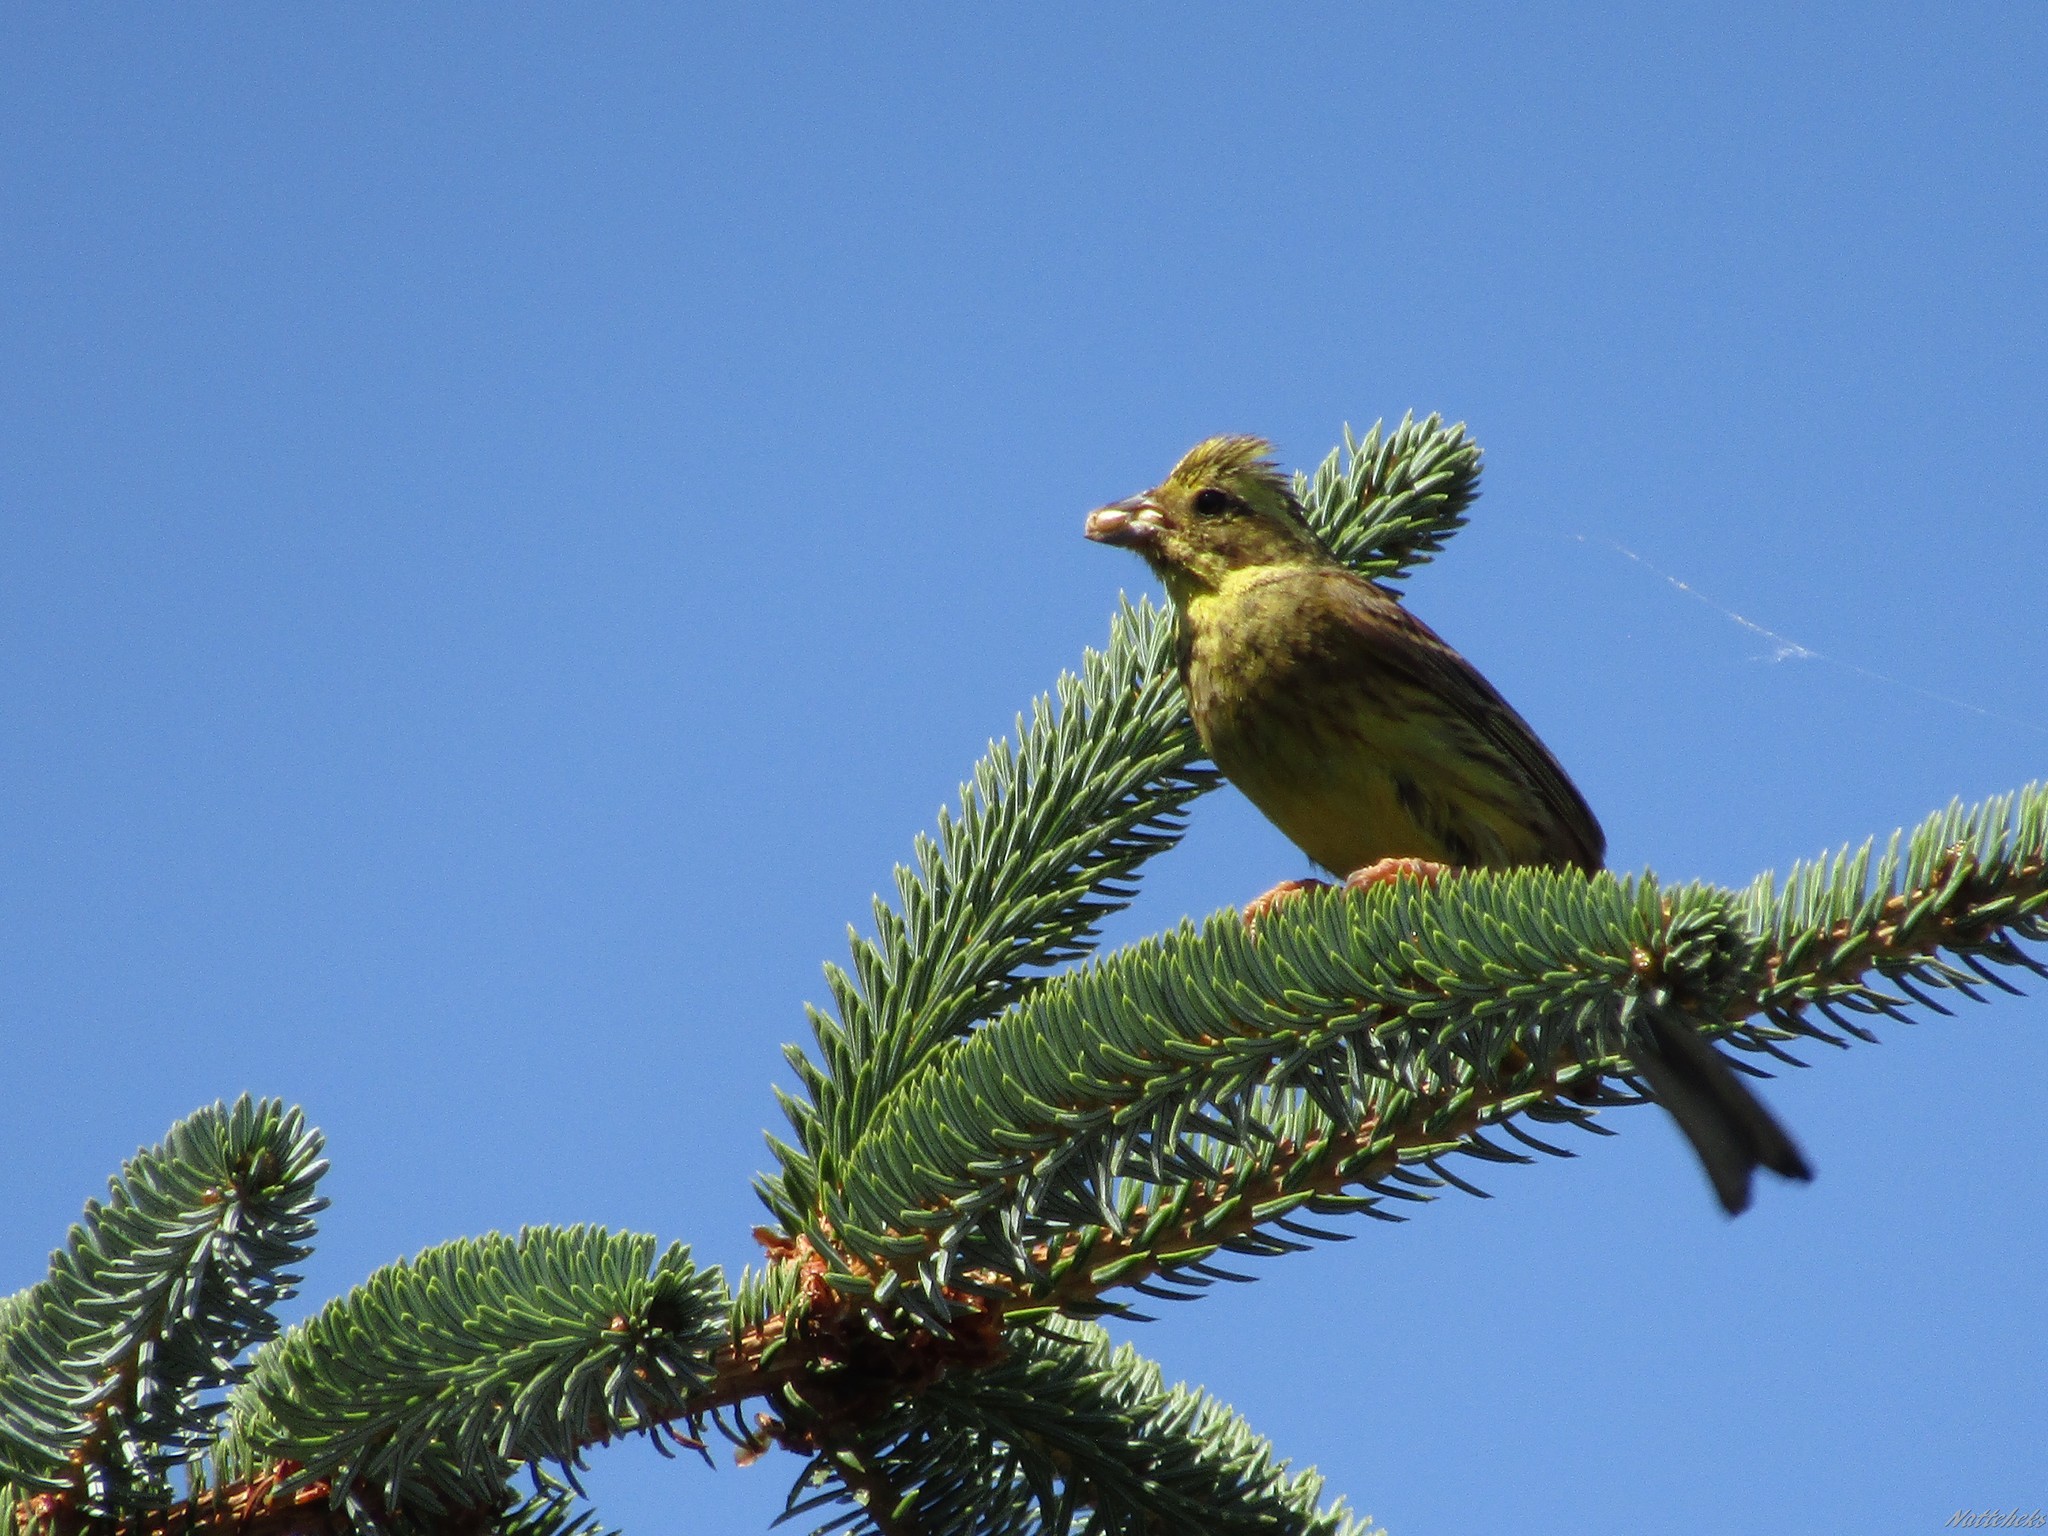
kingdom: Animalia
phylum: Chordata
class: Aves
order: Passeriformes
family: Emberizidae
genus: Emberiza
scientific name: Emberiza citrinella
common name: Yellowhammer
